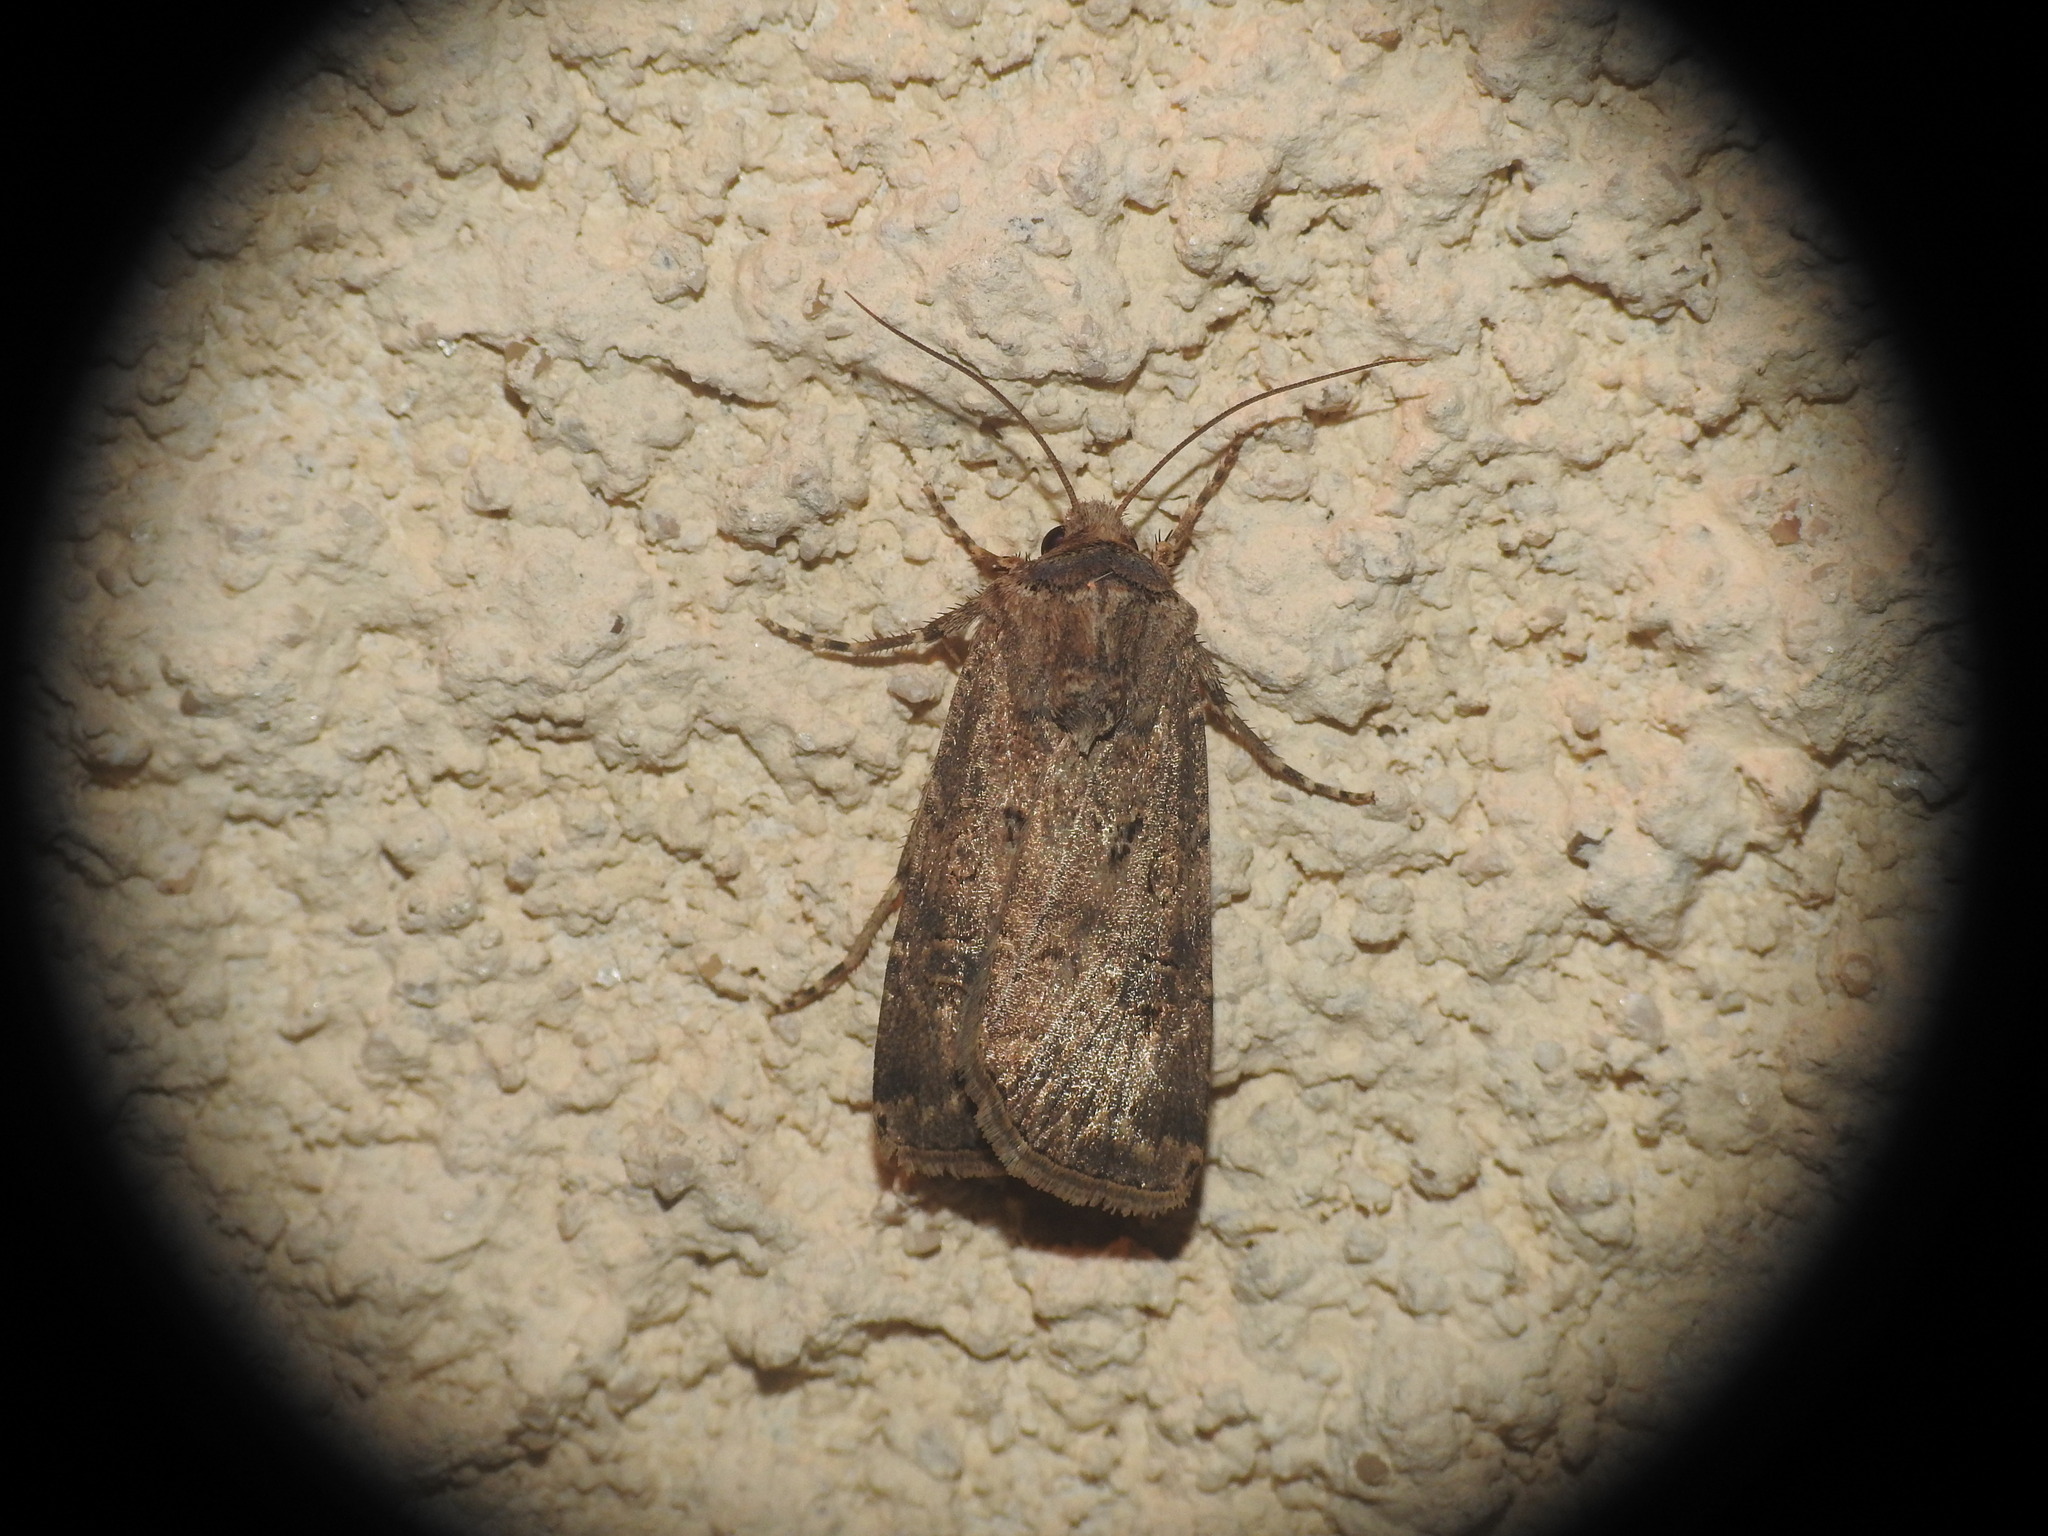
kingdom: Animalia
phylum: Arthropoda
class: Insecta
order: Lepidoptera
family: Noctuidae
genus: Agrotis
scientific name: Agrotis bigramma
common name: Great dart
